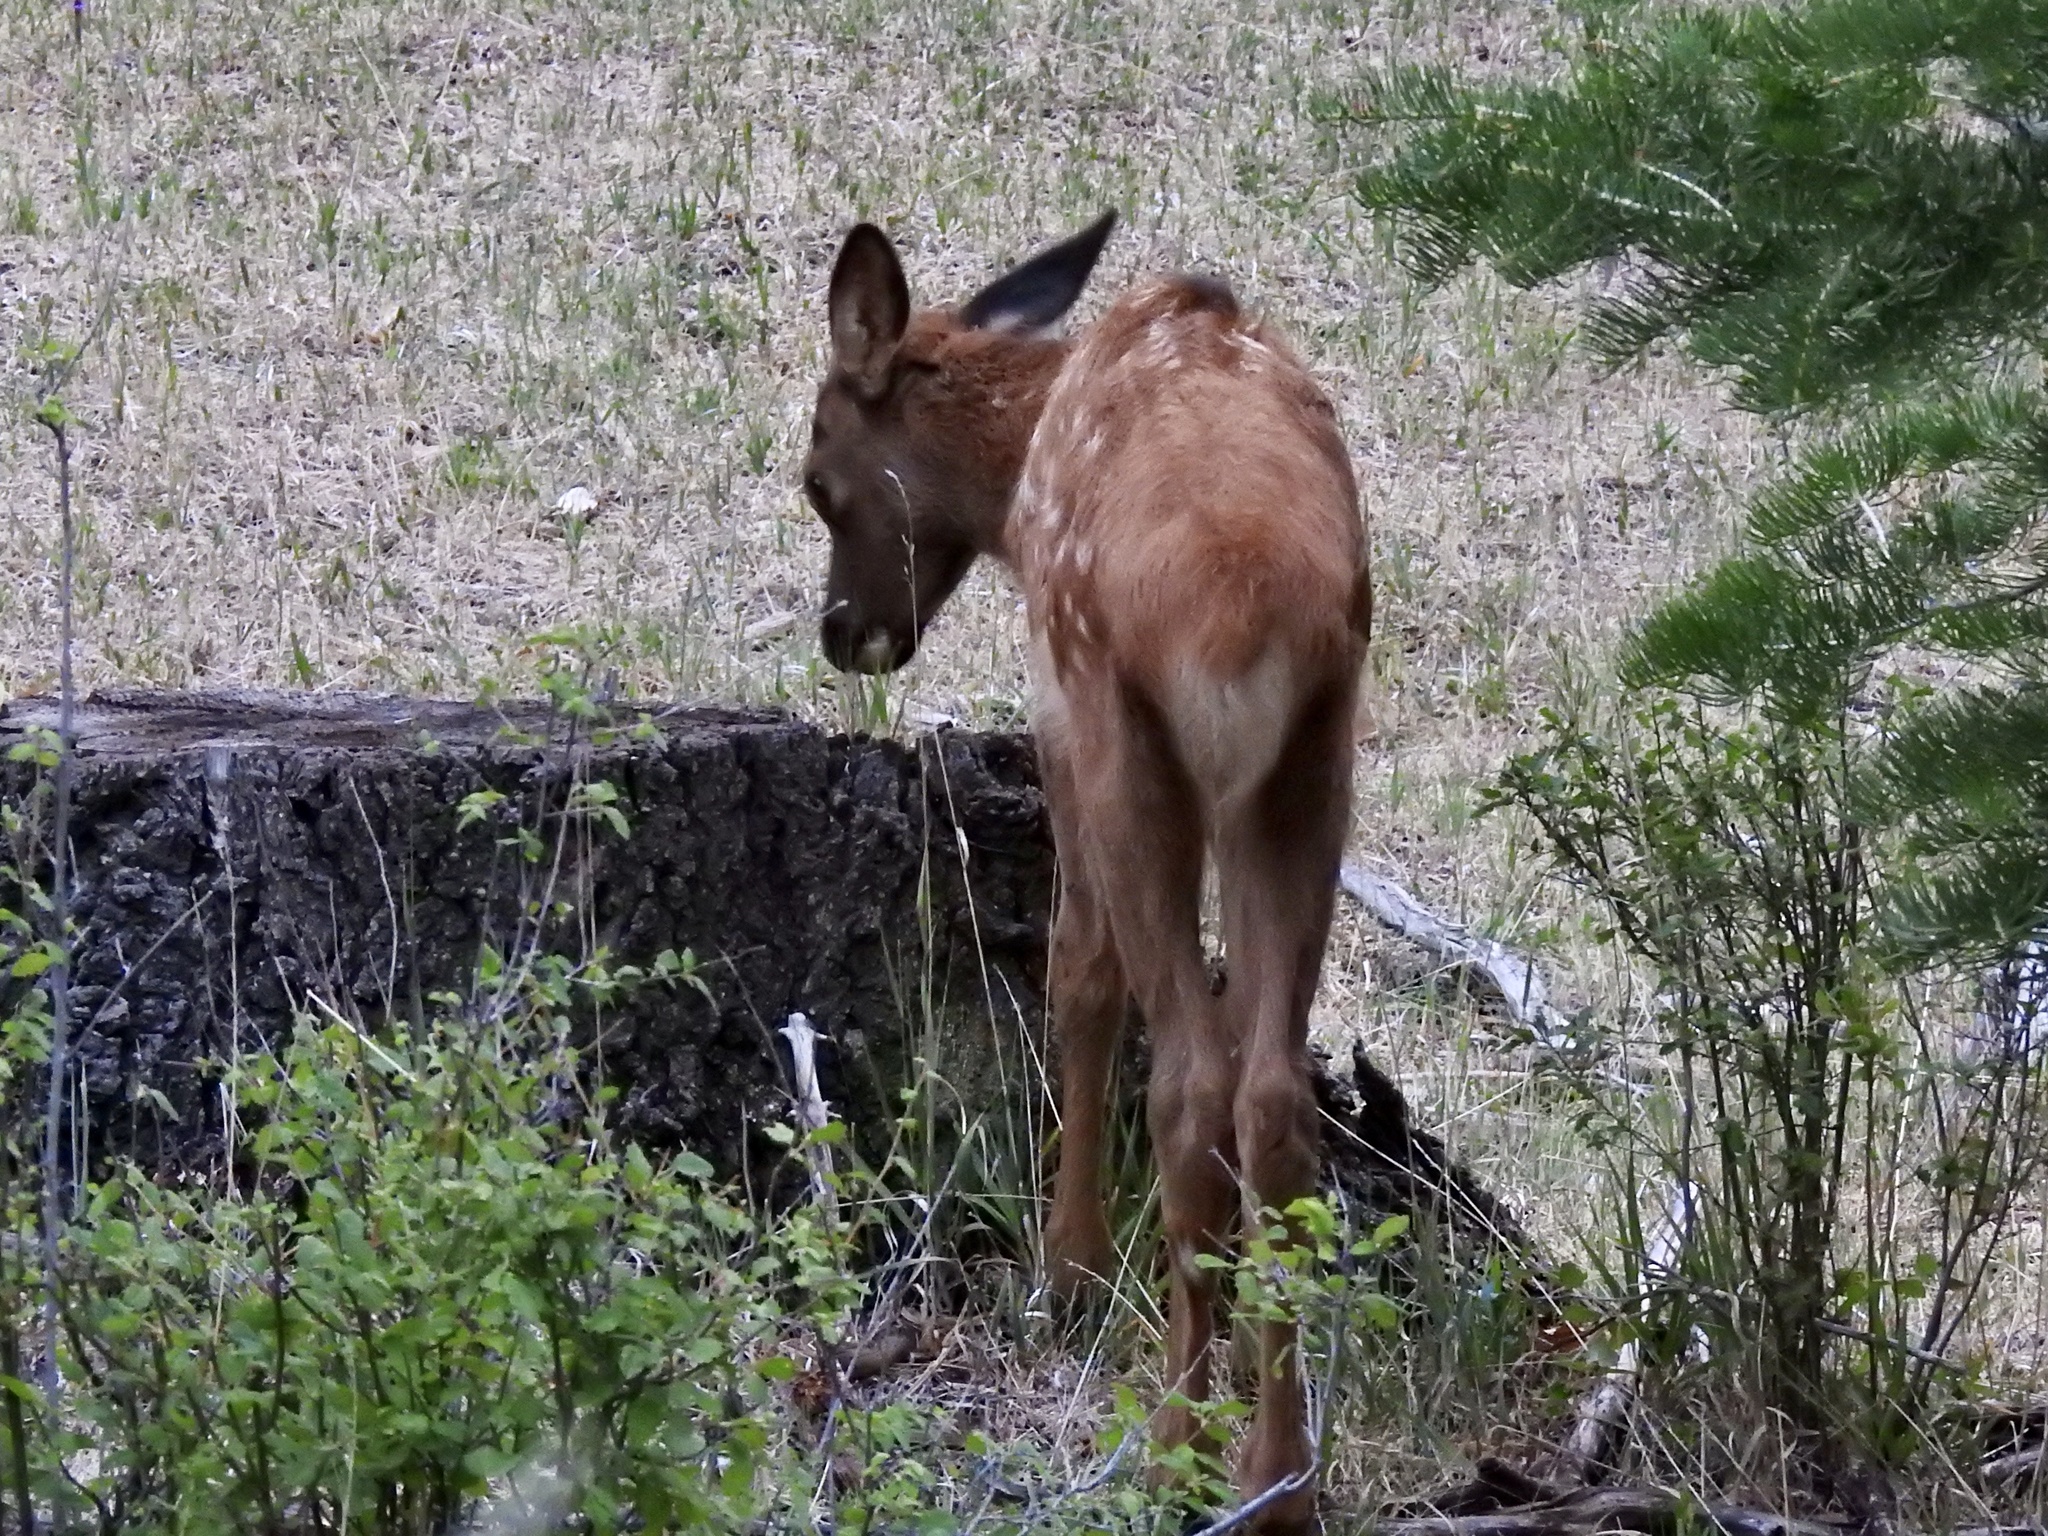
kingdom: Animalia
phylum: Chordata
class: Mammalia
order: Artiodactyla
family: Cervidae
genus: Cervus
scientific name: Cervus elaphus
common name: Red deer
